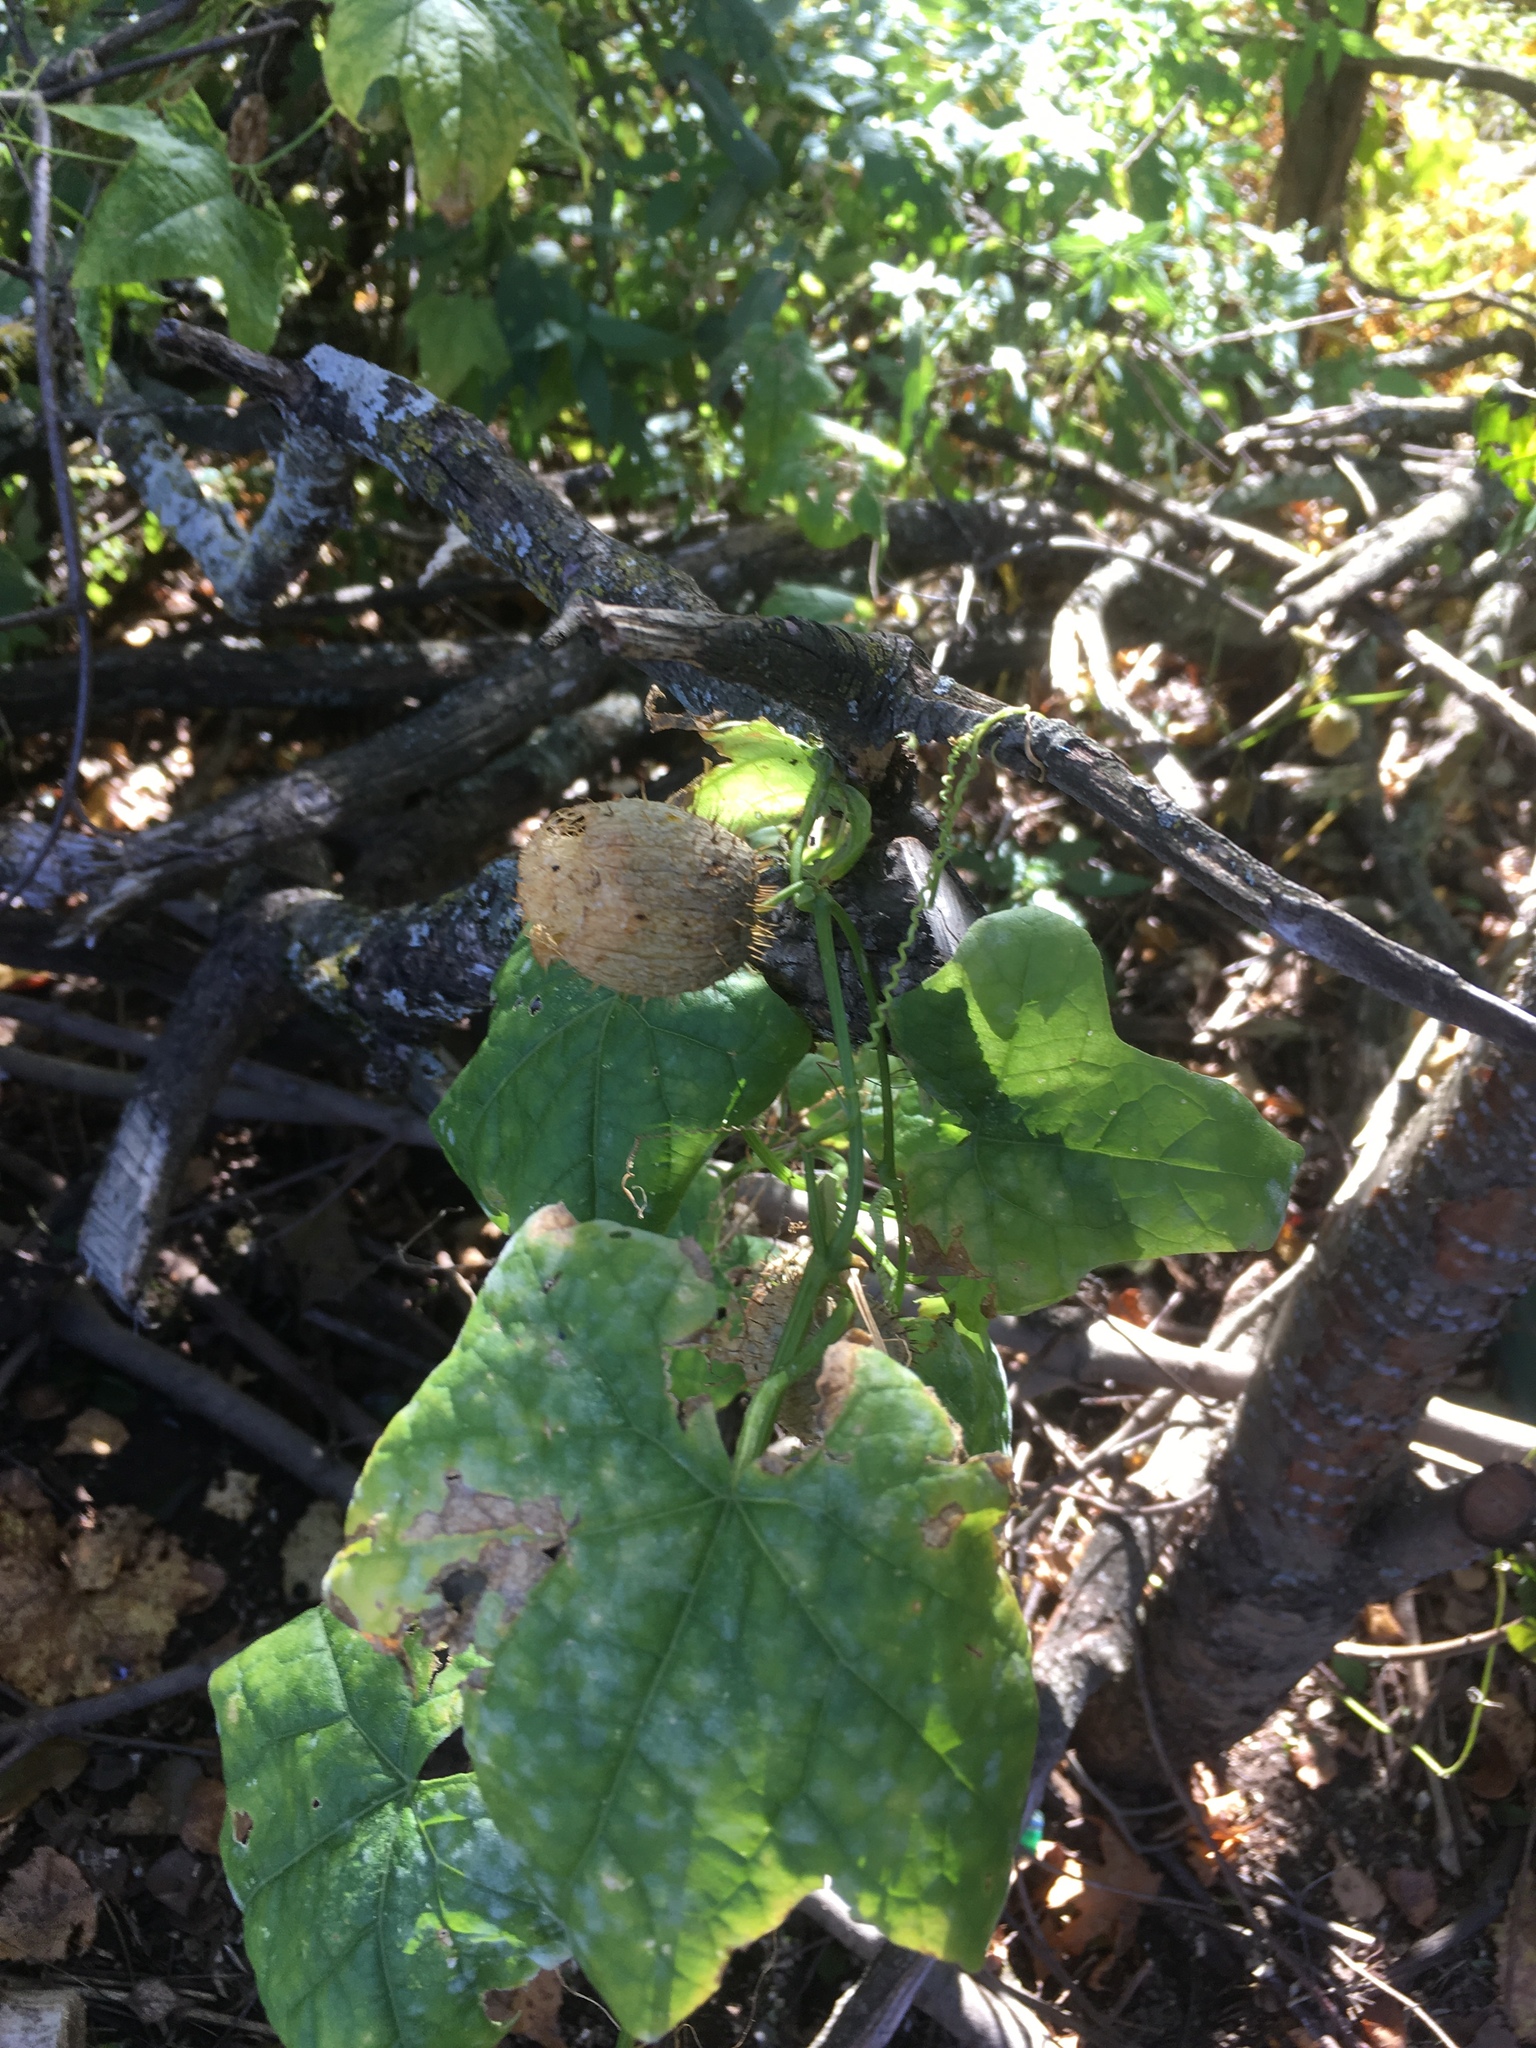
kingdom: Plantae
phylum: Tracheophyta
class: Magnoliopsida
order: Cucurbitales
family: Cucurbitaceae
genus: Echinocystis
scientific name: Echinocystis lobata
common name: Wild cucumber
